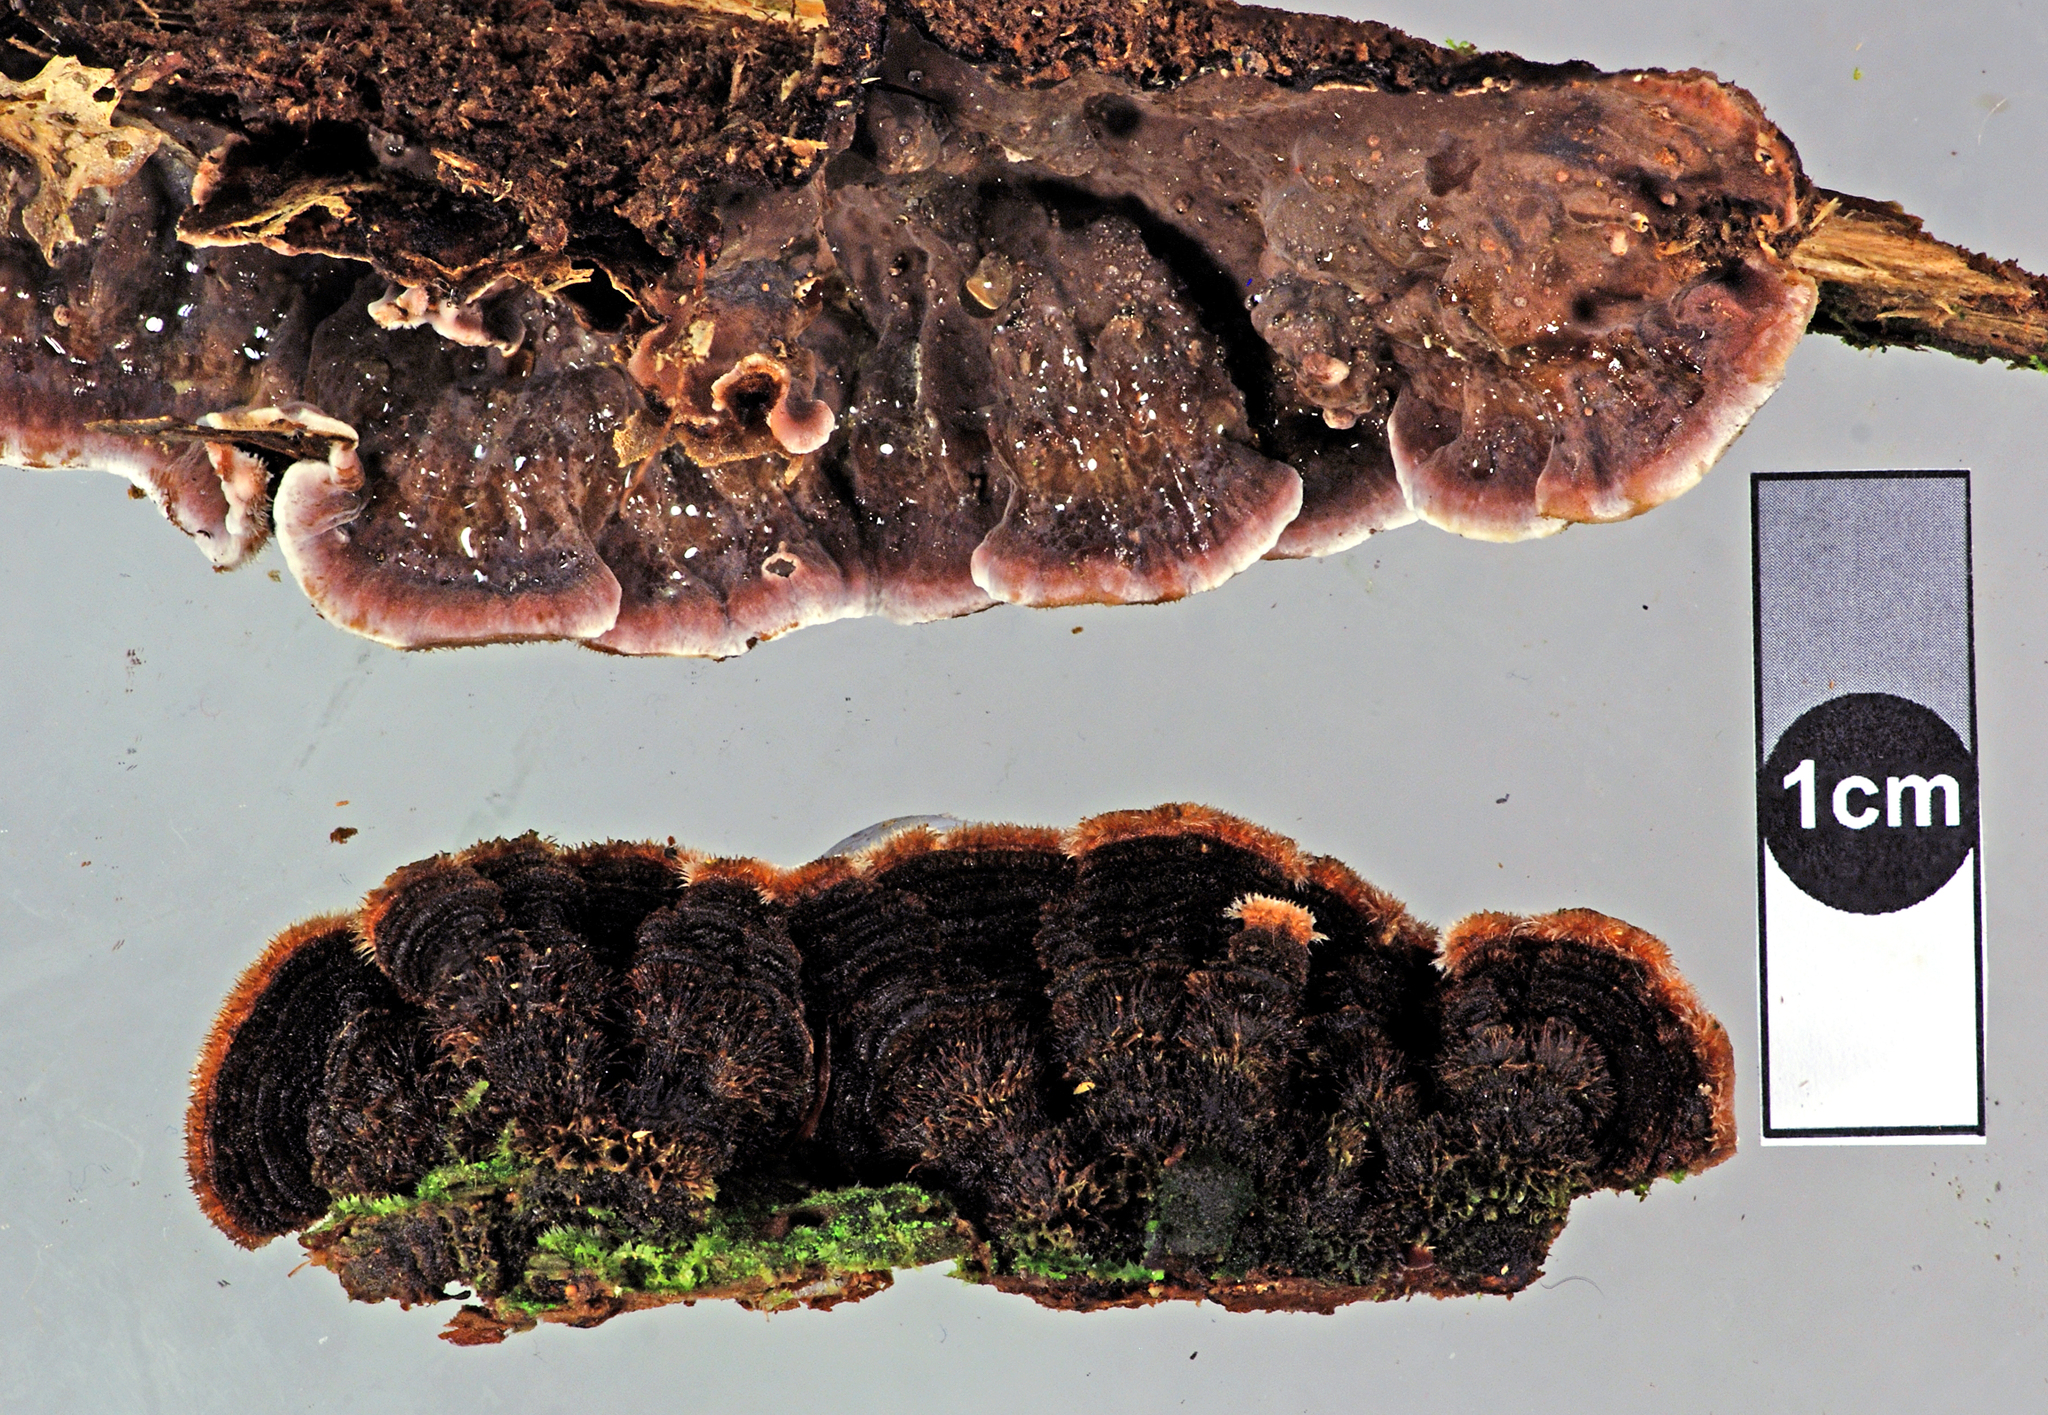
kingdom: Fungi
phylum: Basidiomycota
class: Agaricomycetes
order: Russulales
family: Stereaceae
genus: Xylobolus
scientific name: Xylobolus illudens
